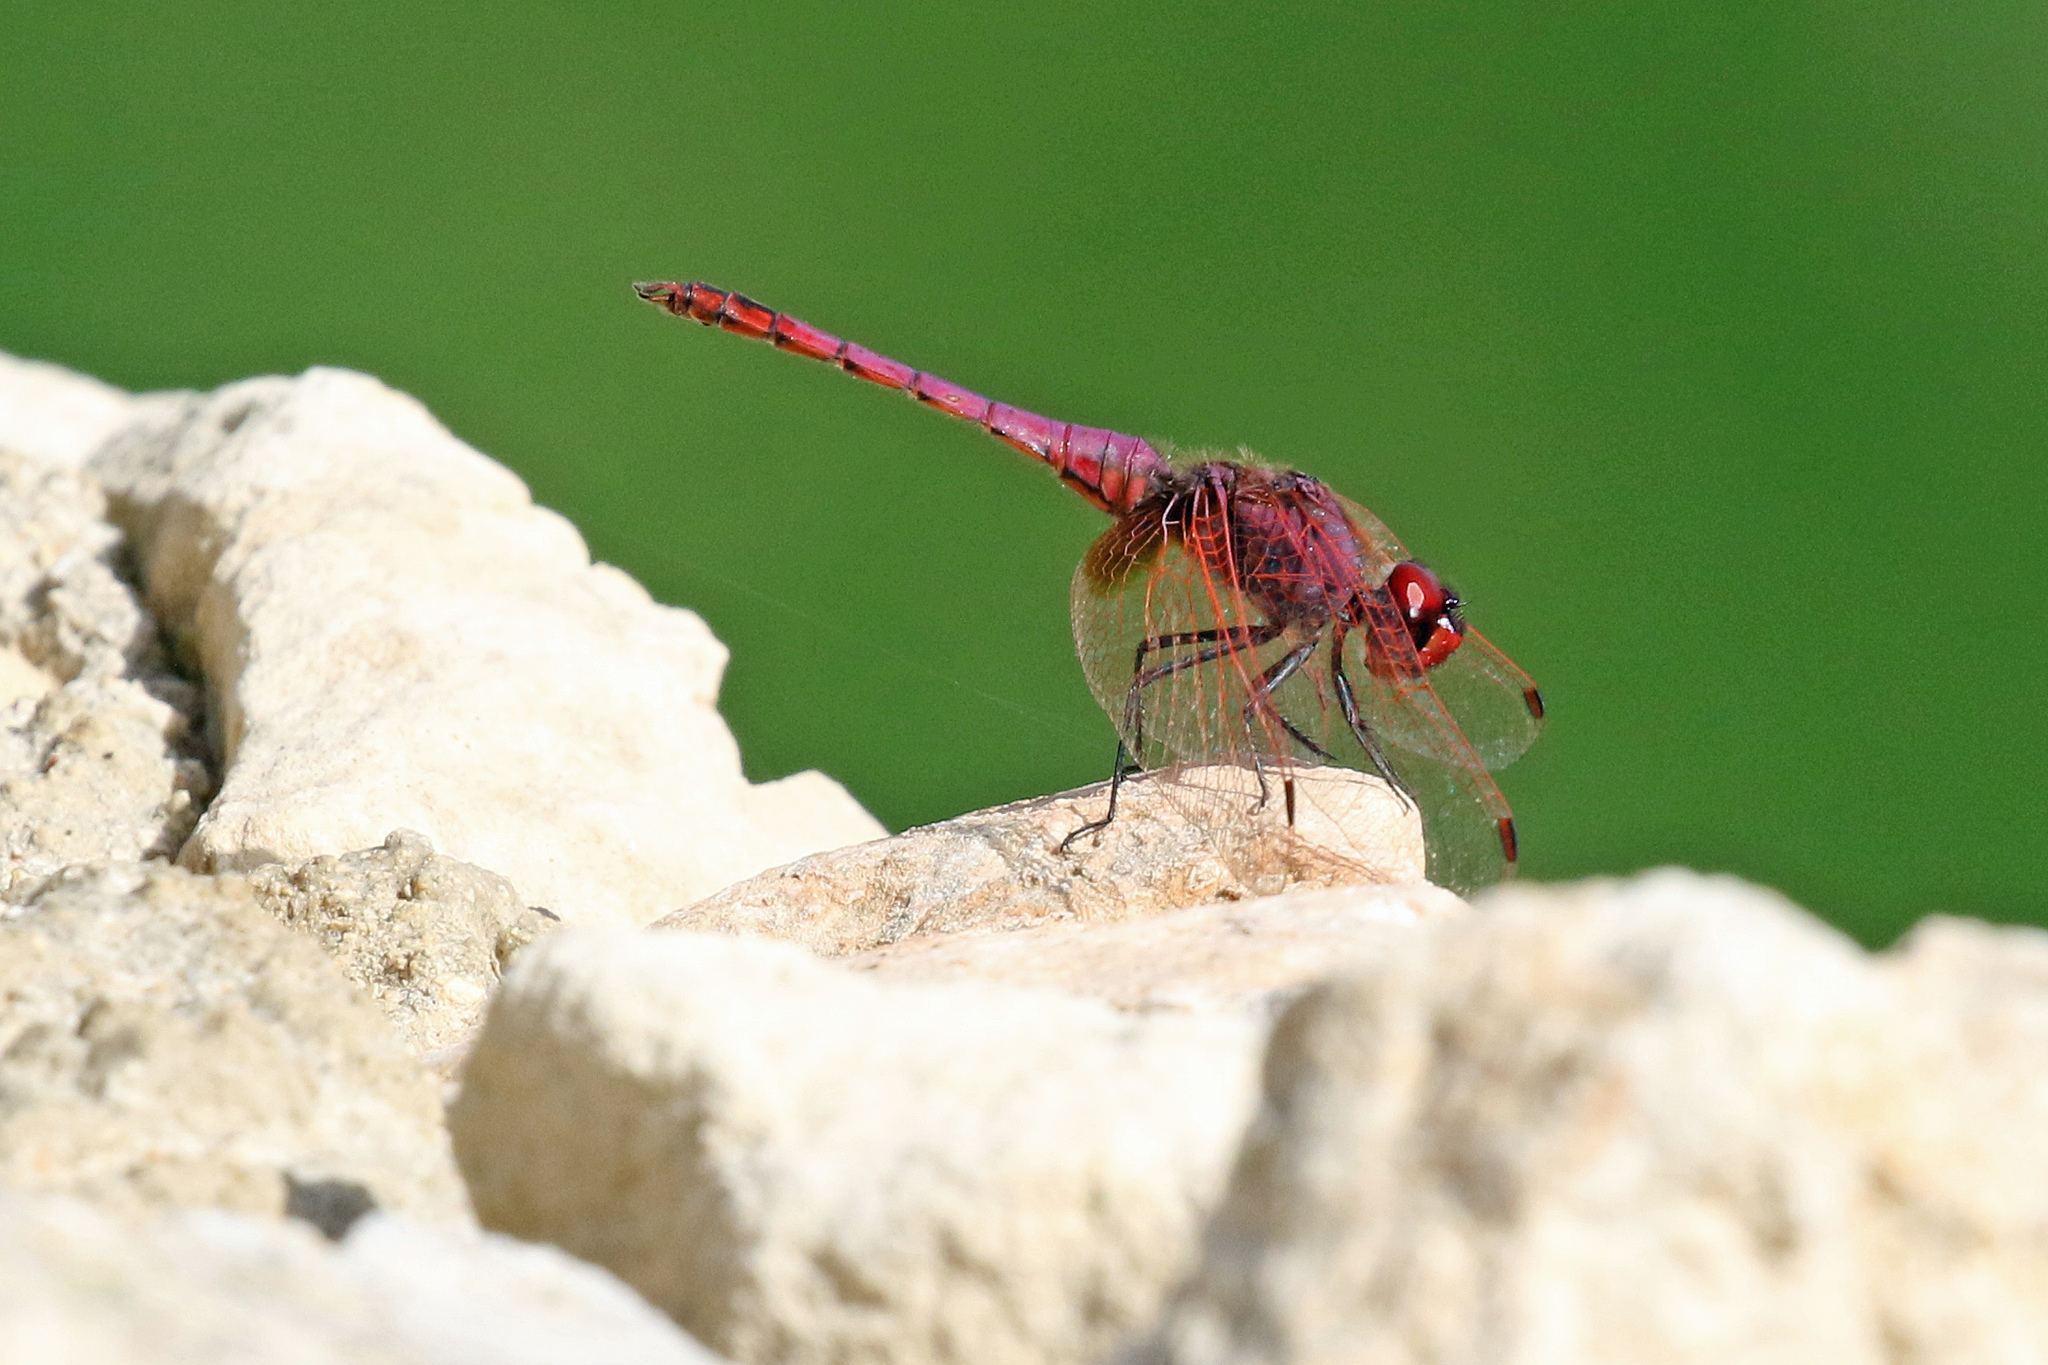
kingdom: Animalia
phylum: Arthropoda
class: Insecta
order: Odonata
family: Libellulidae
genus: Trithemis
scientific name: Trithemis annulata
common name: Violet dropwing
